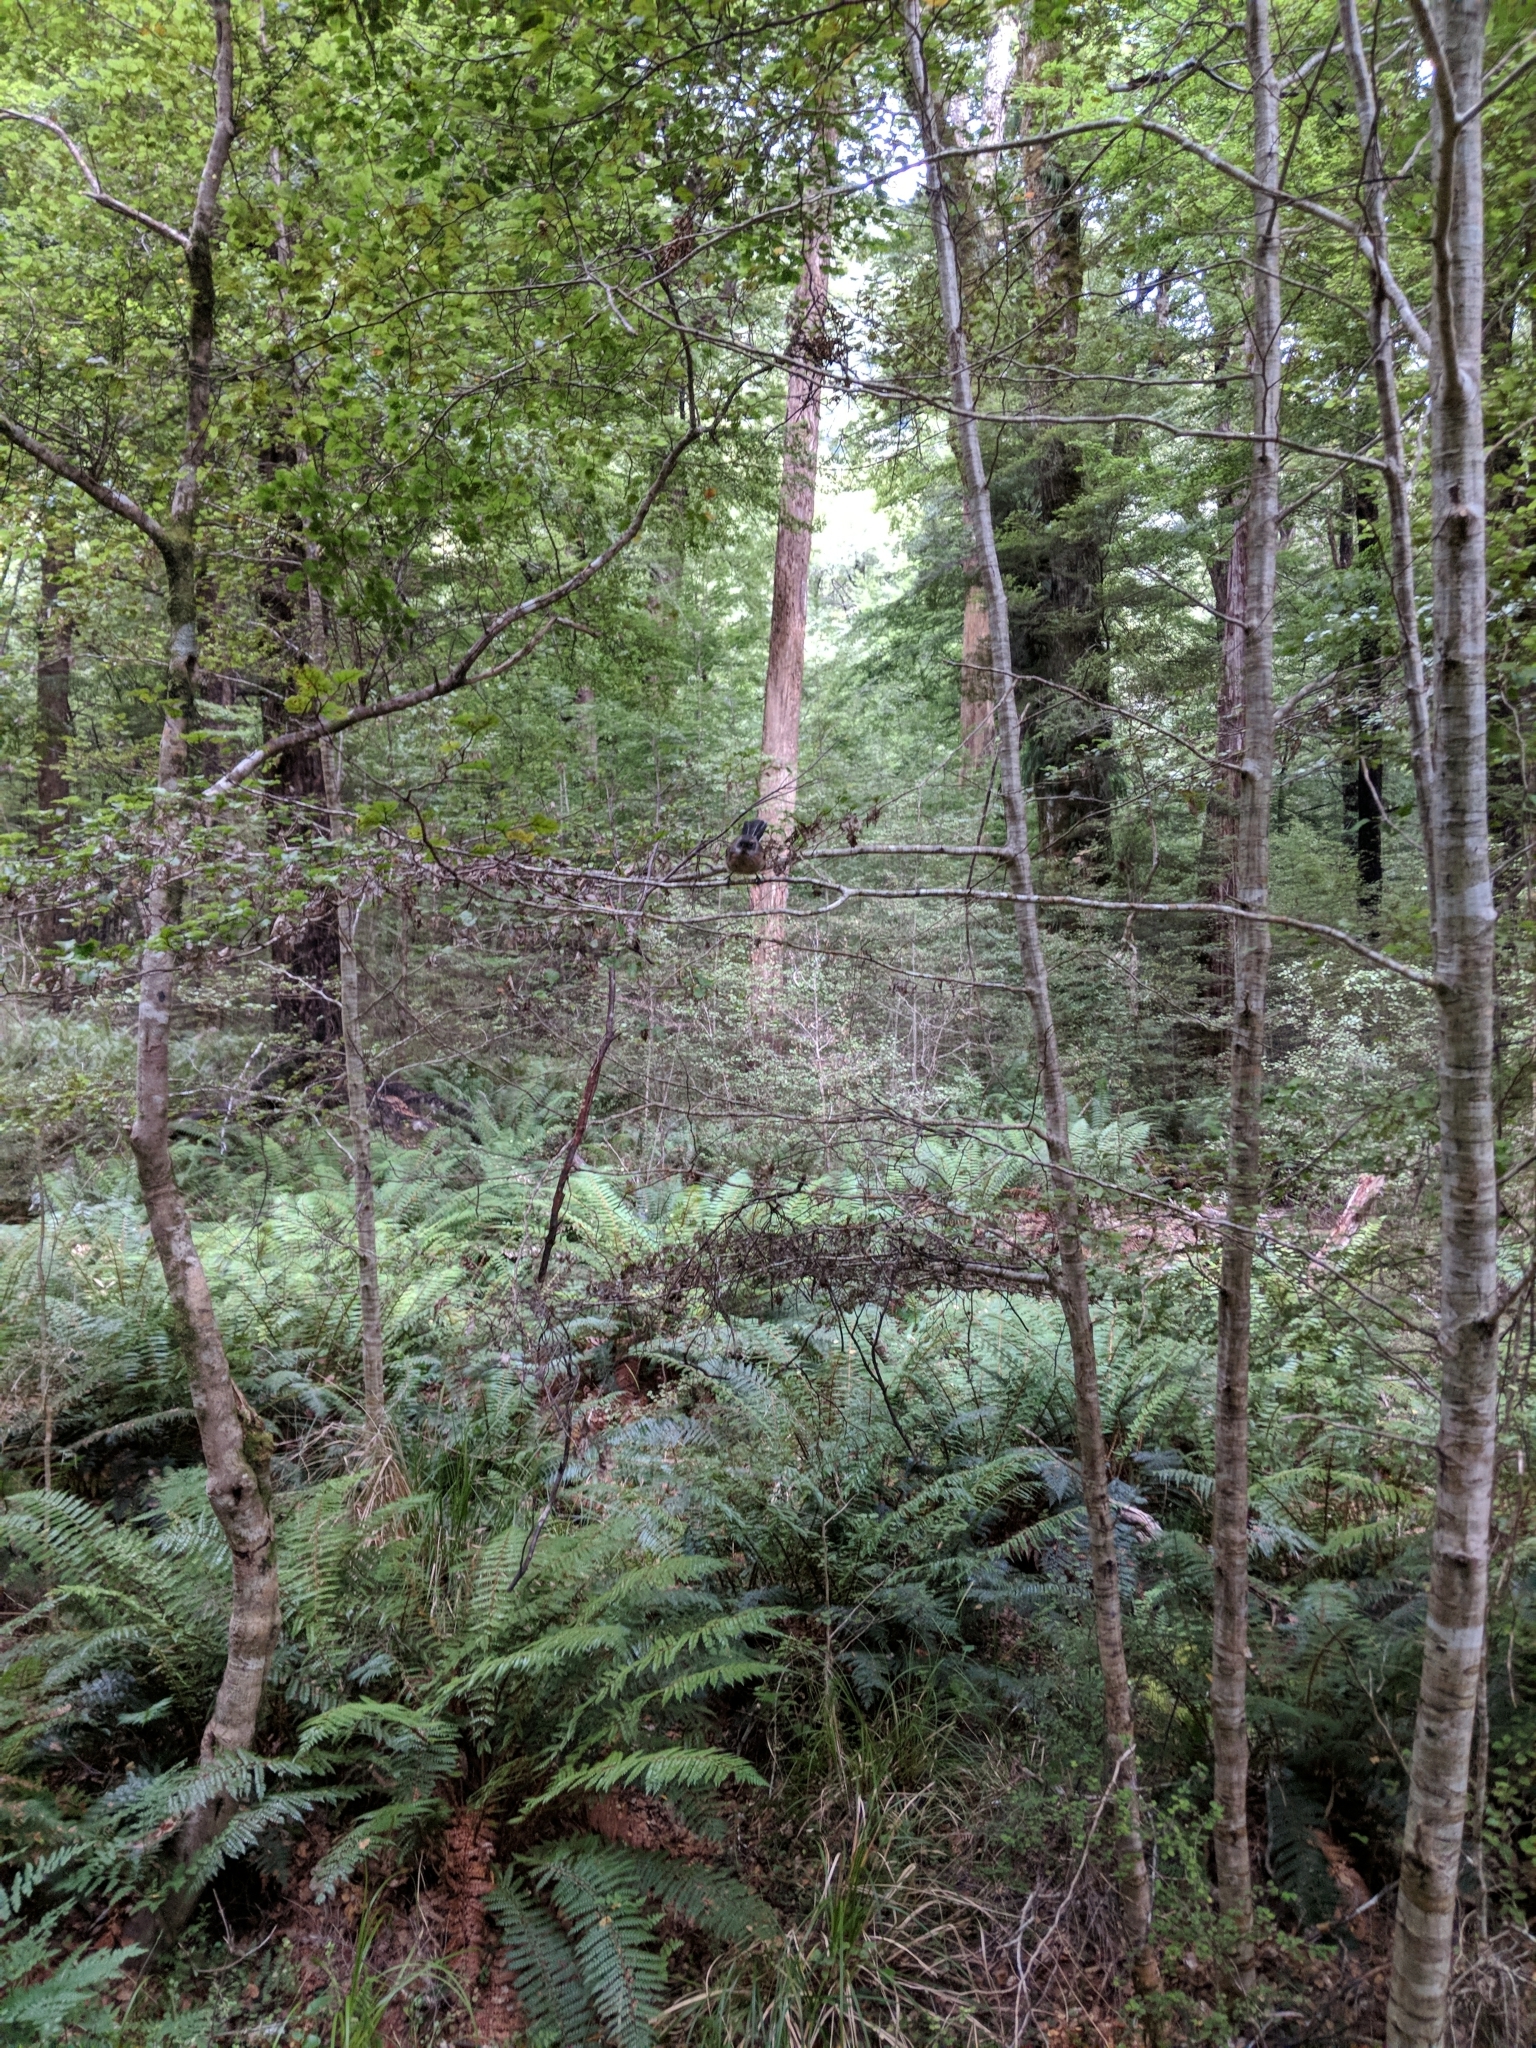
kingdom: Animalia
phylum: Chordata
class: Aves
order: Passeriformes
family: Rhipiduridae
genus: Rhipidura
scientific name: Rhipidura fuliginosa
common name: New zealand fantail
